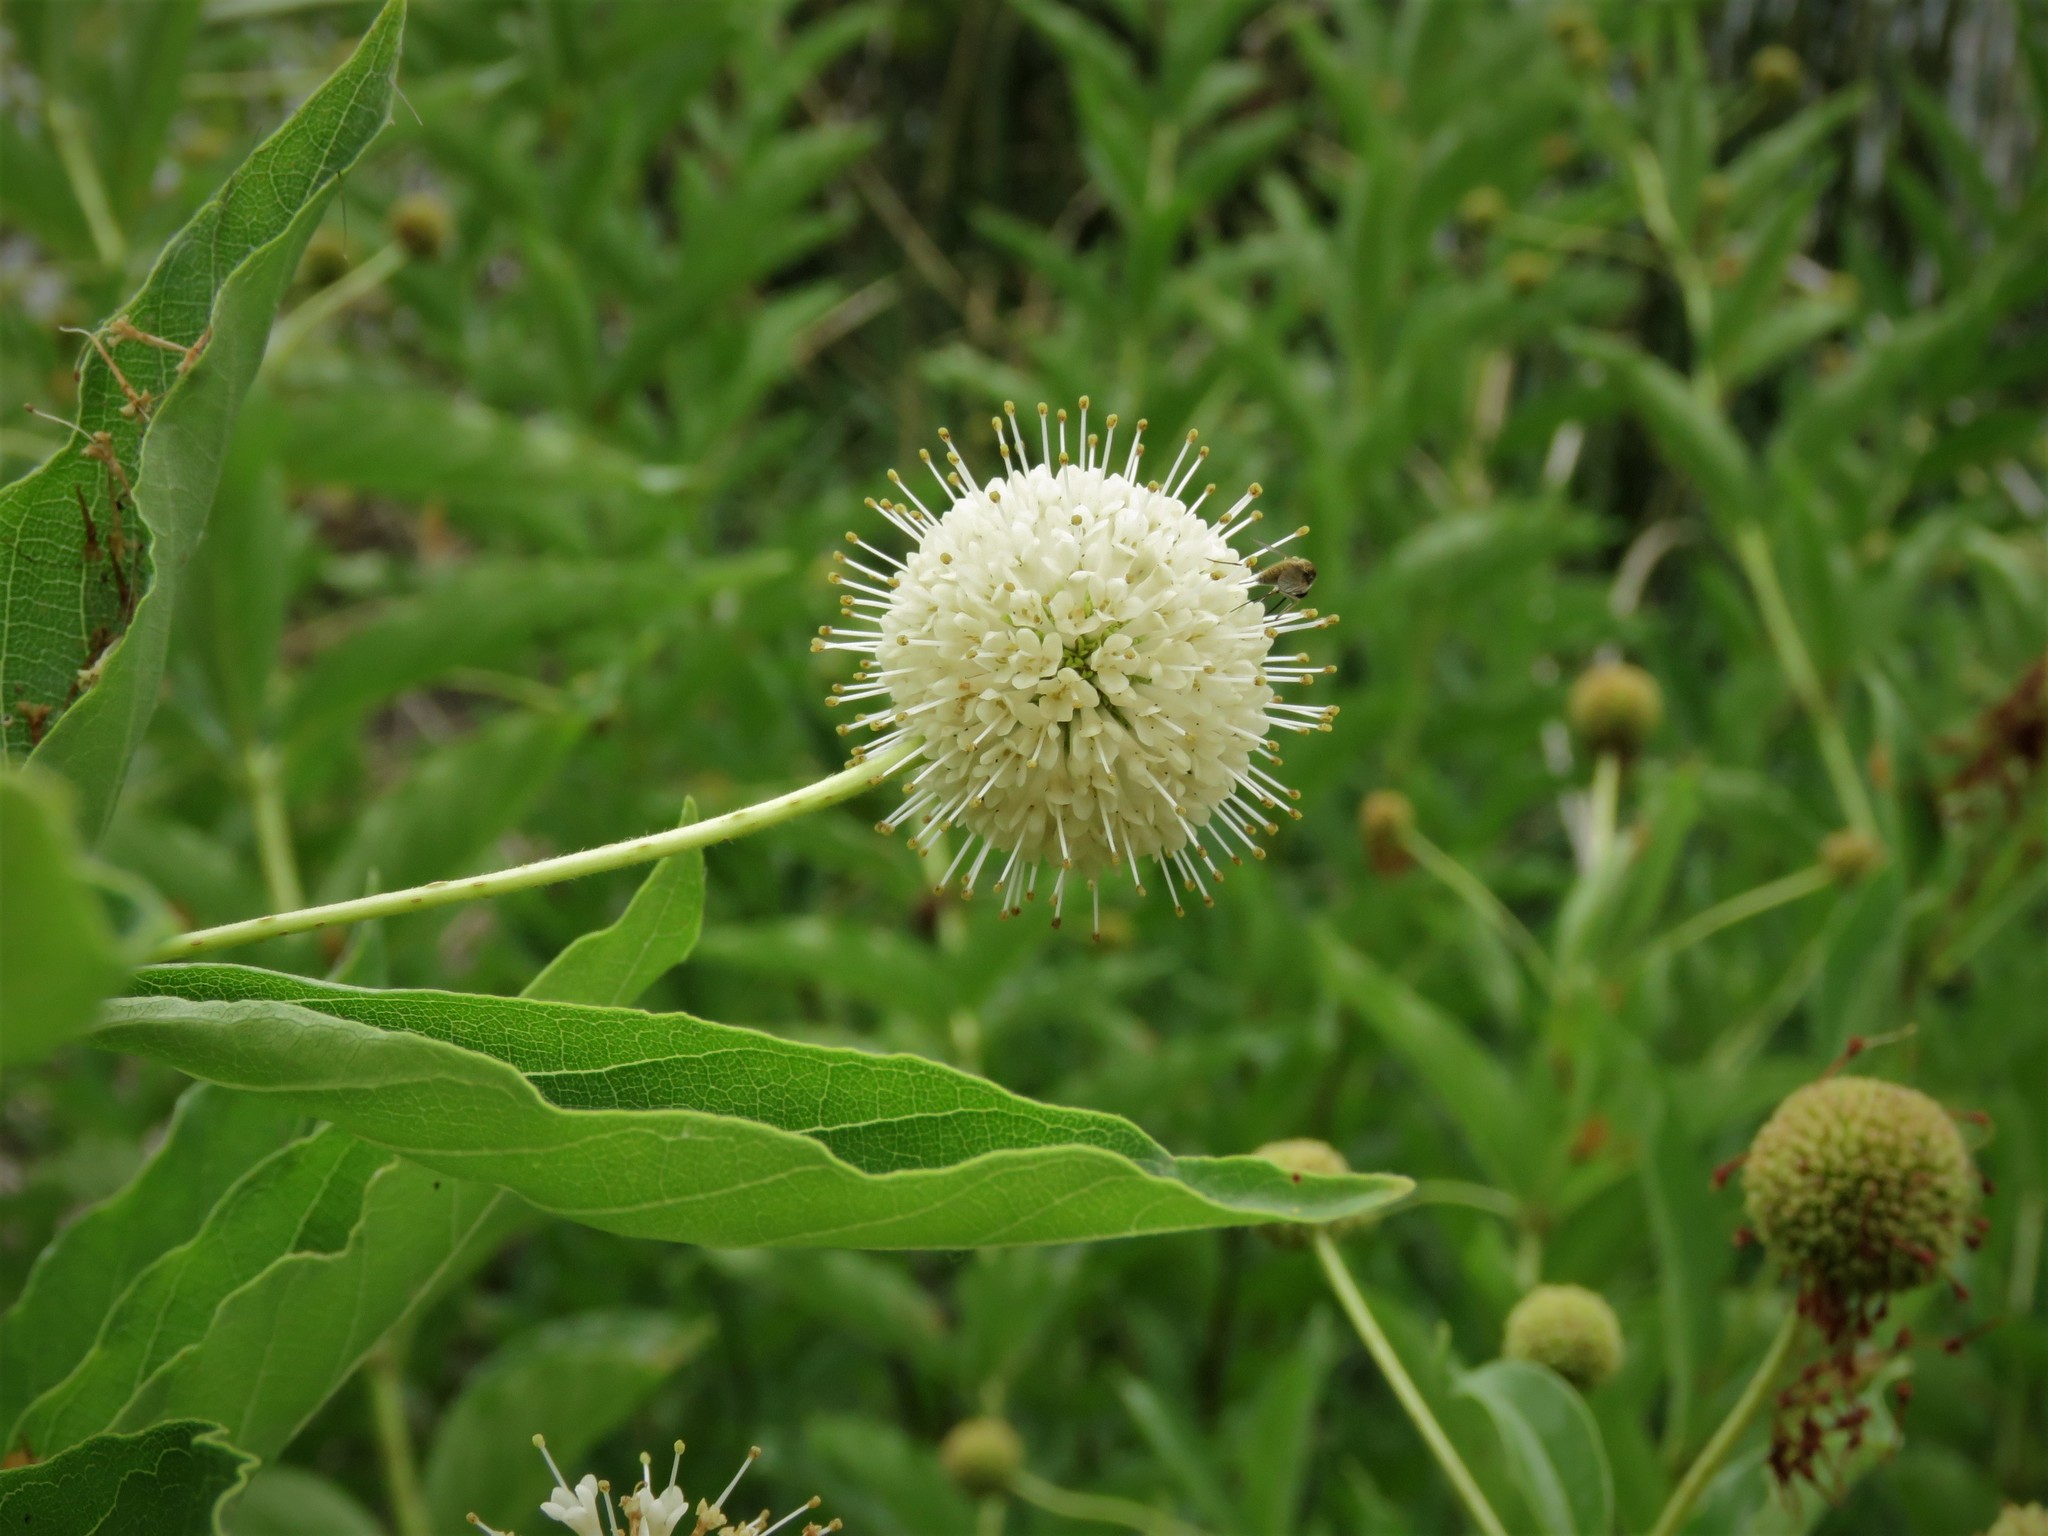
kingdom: Plantae
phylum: Tracheophyta
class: Magnoliopsida
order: Gentianales
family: Rubiaceae
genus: Cephalanthus
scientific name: Cephalanthus occidentalis
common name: Button-willow
